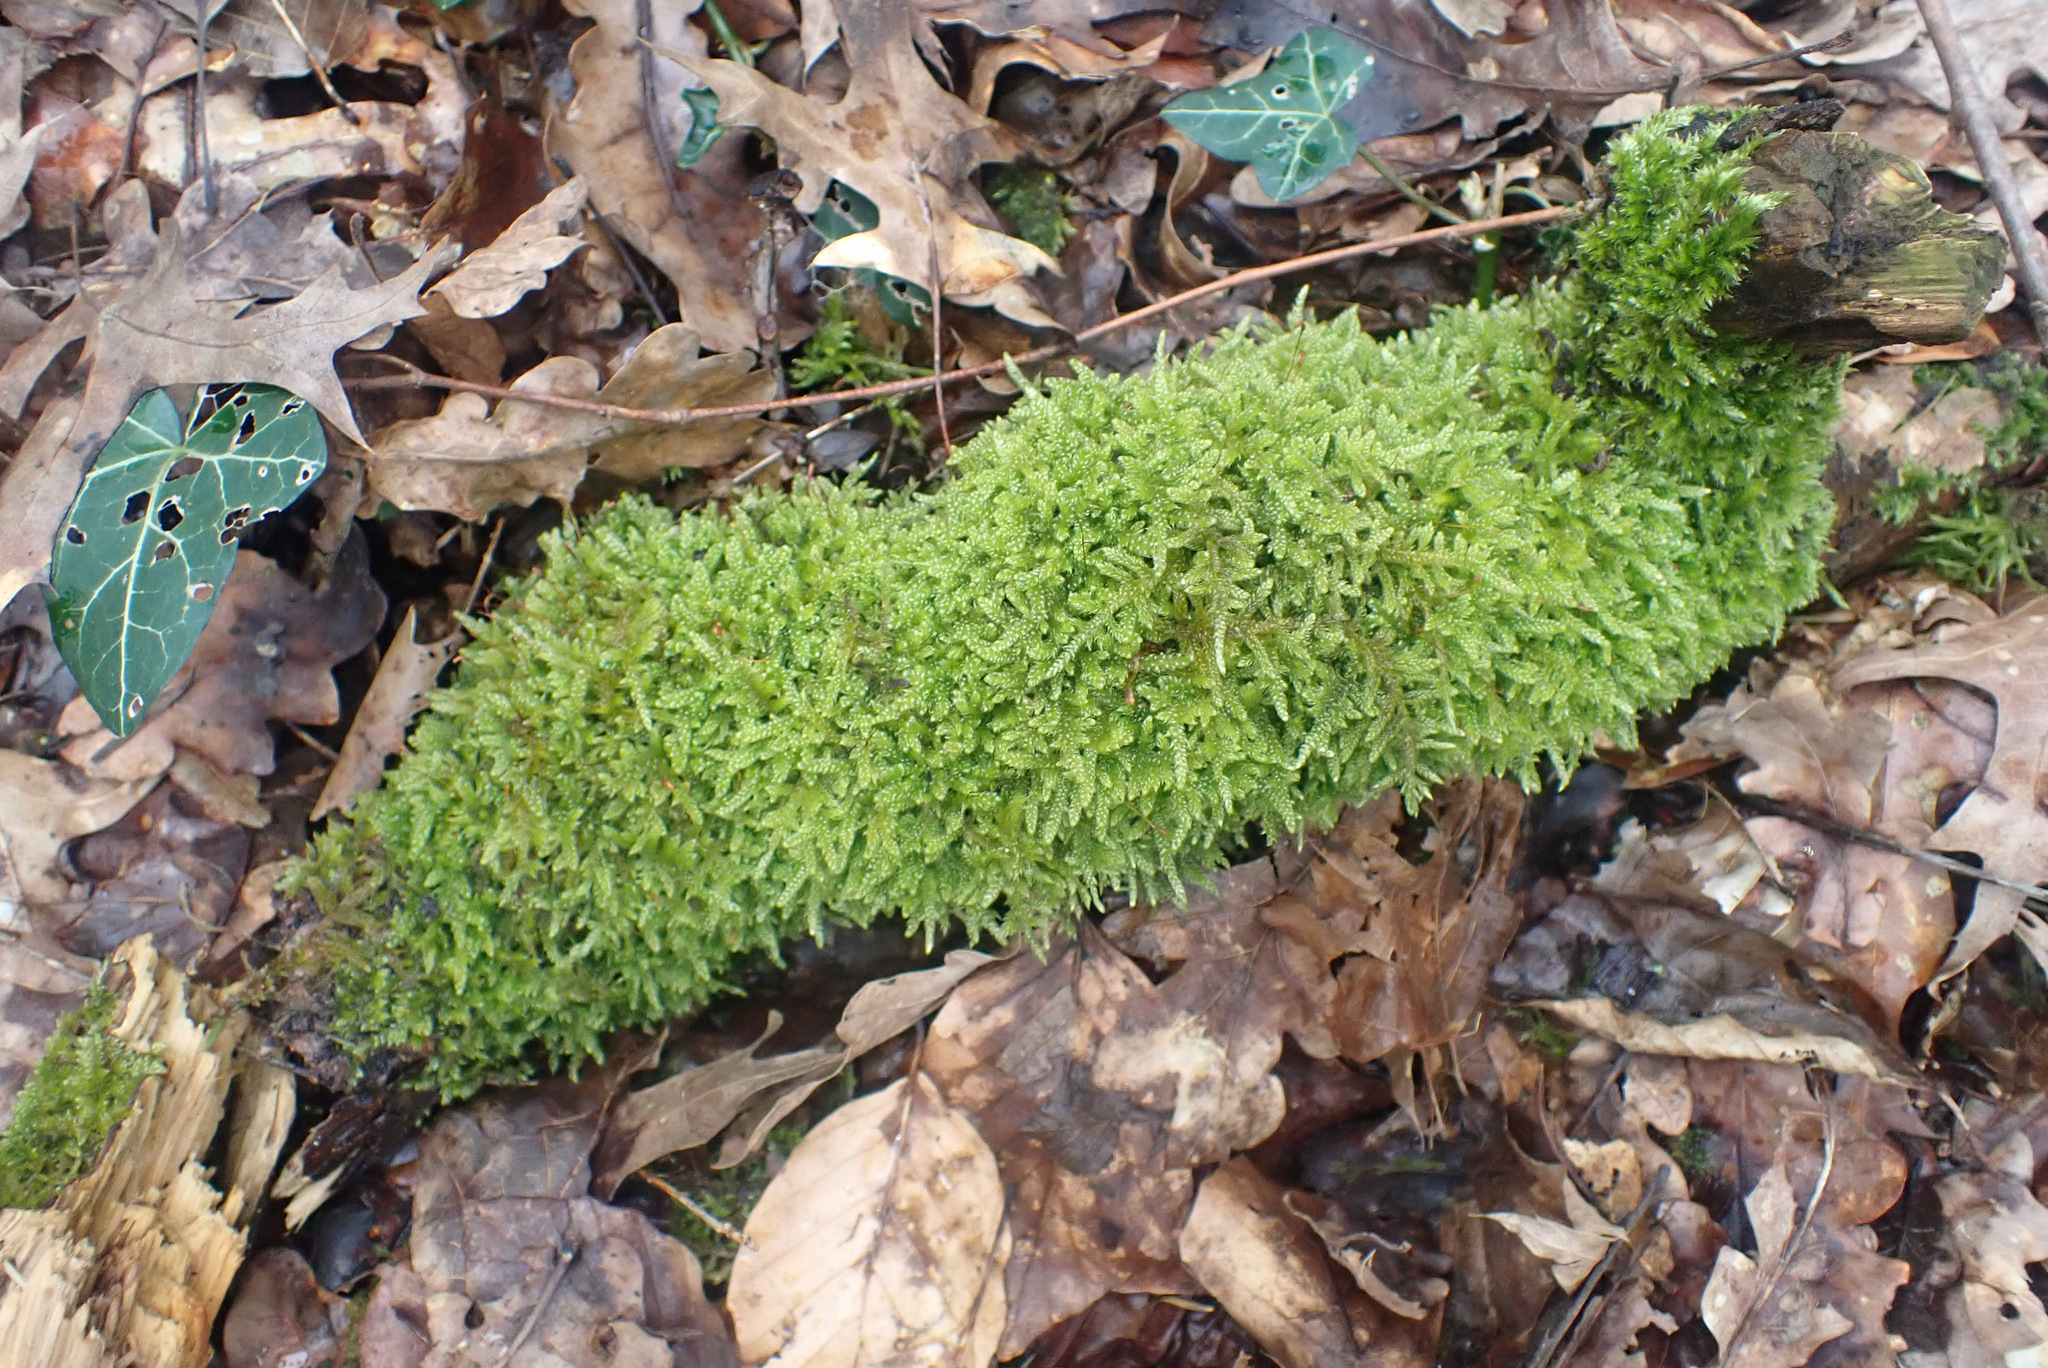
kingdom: Plantae
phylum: Bryophyta
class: Bryopsida
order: Hypnales
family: Hypnaceae
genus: Hypnum
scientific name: Hypnum cupressiforme
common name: Cypress-leaved plait-moss
